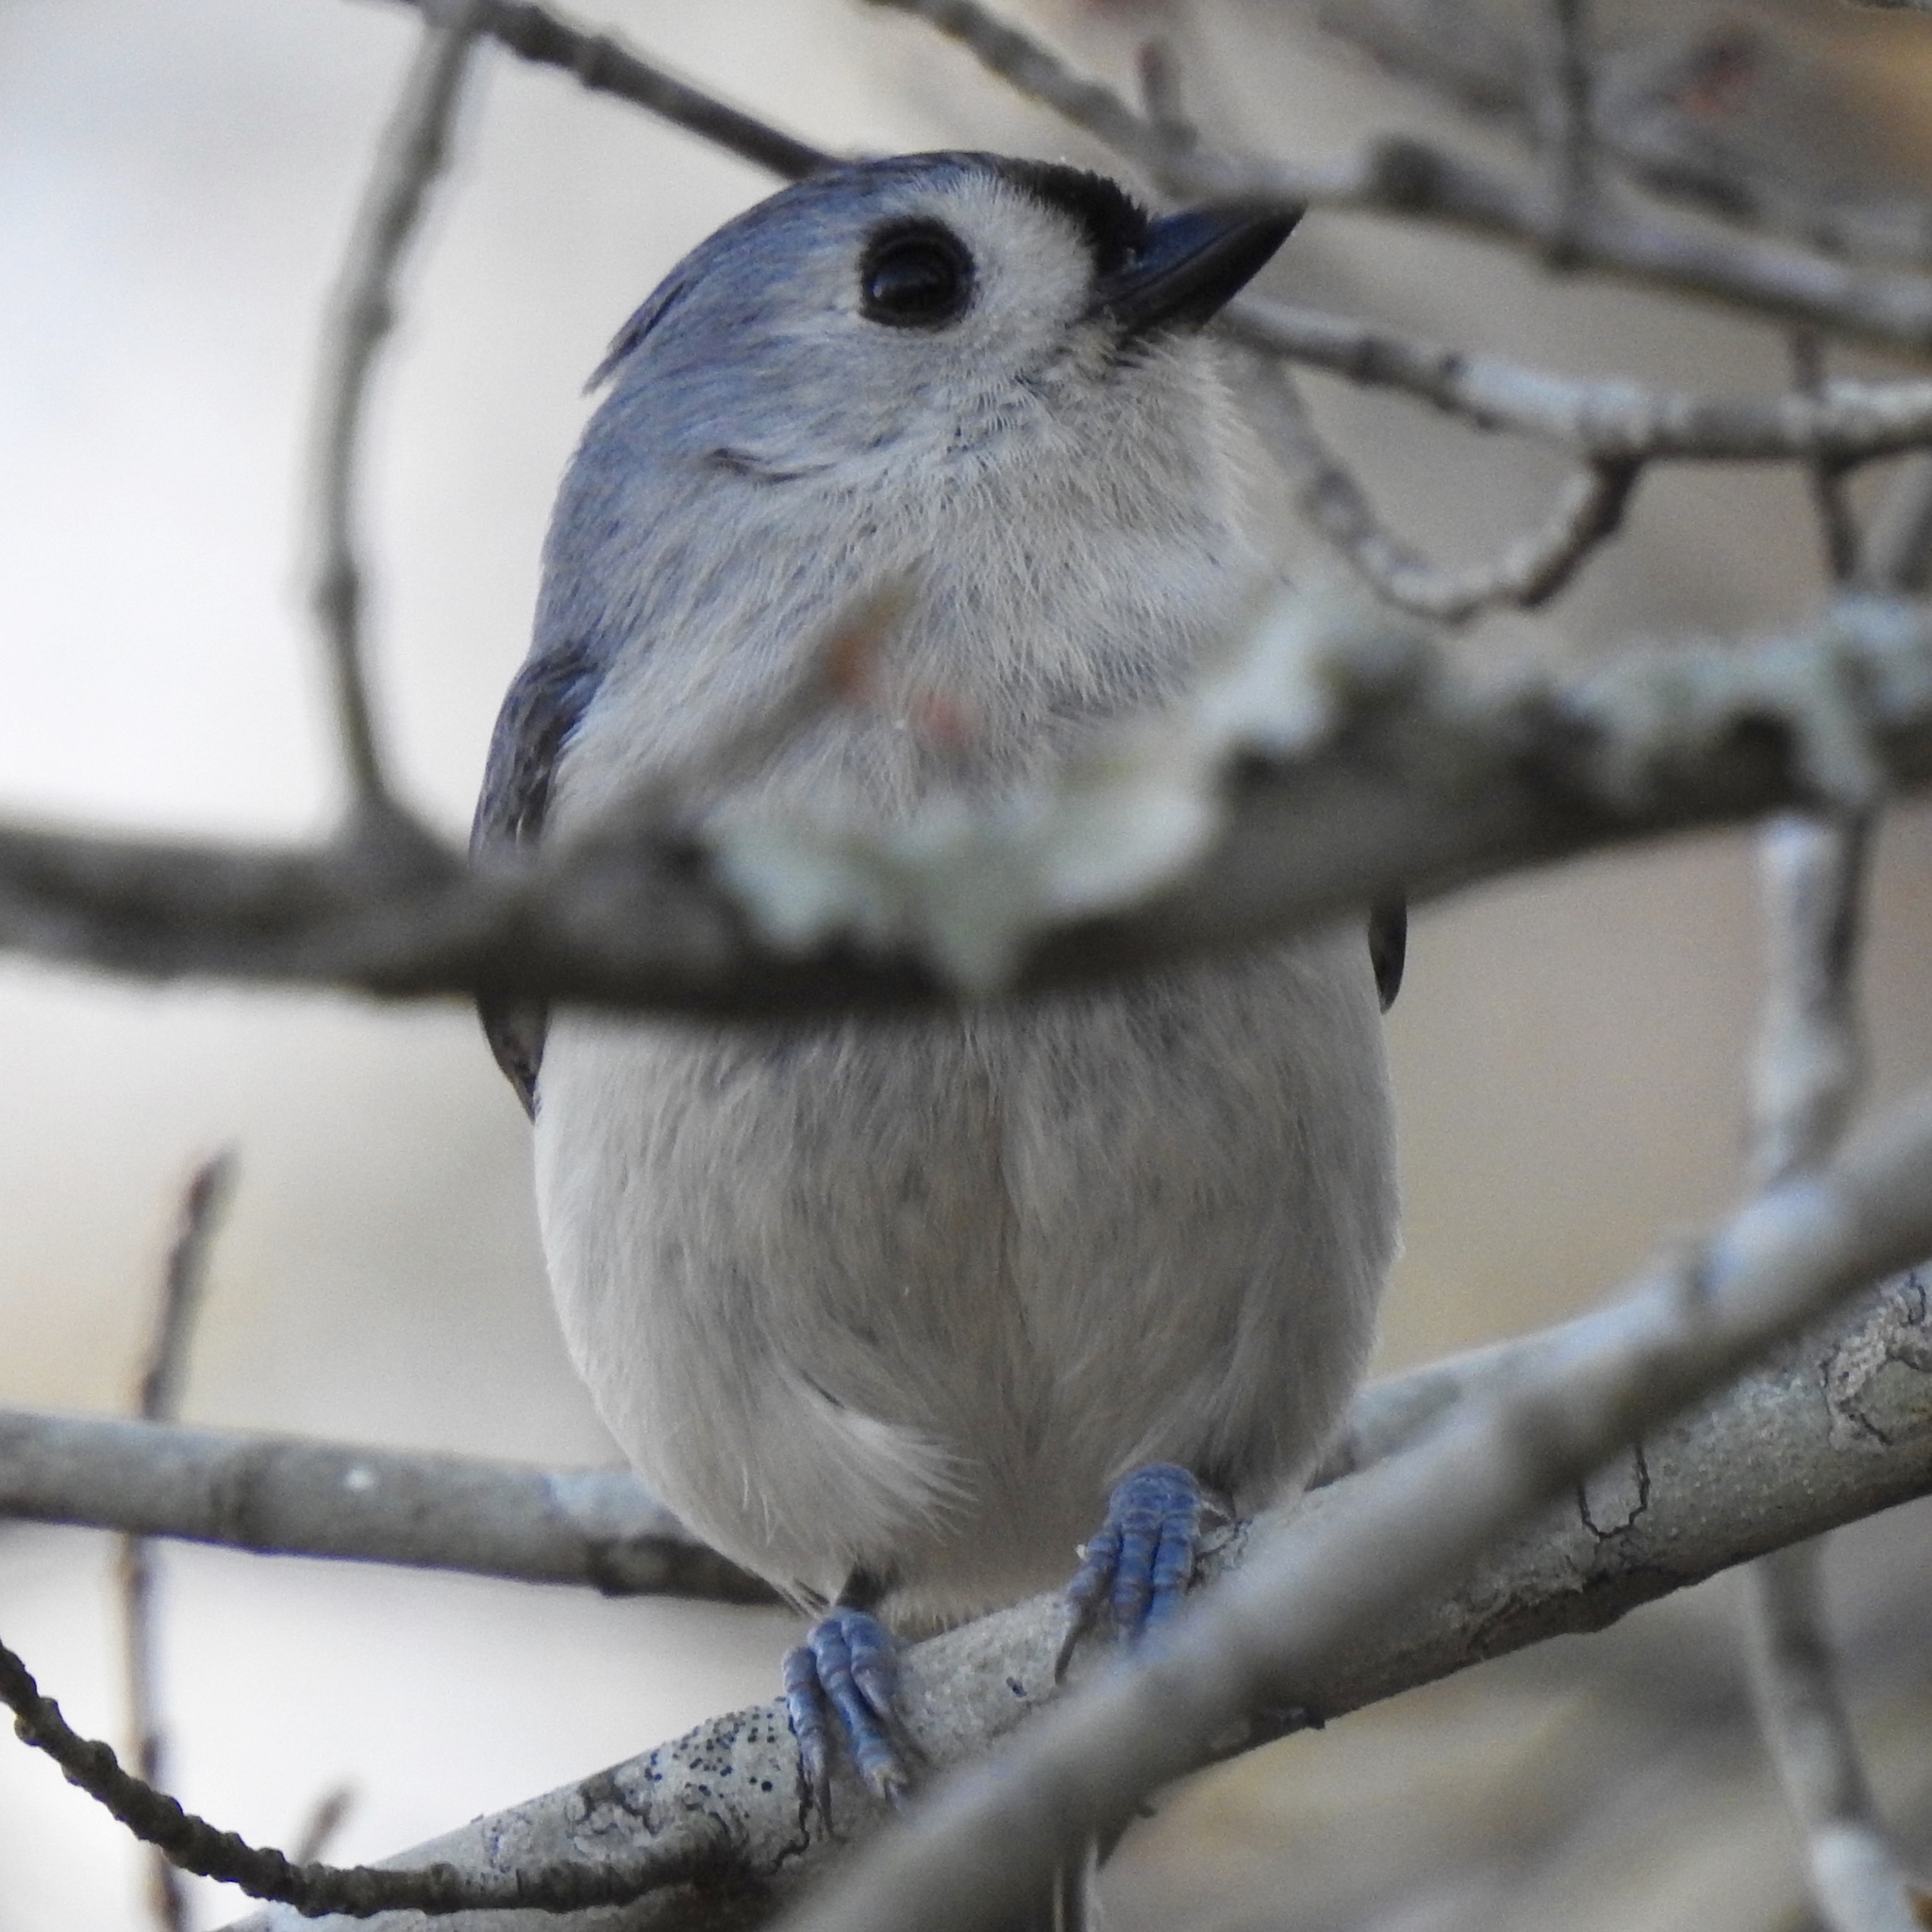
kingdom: Animalia
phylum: Chordata
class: Aves
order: Passeriformes
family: Paridae
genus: Baeolophus
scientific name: Baeolophus bicolor
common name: Tufted titmouse
